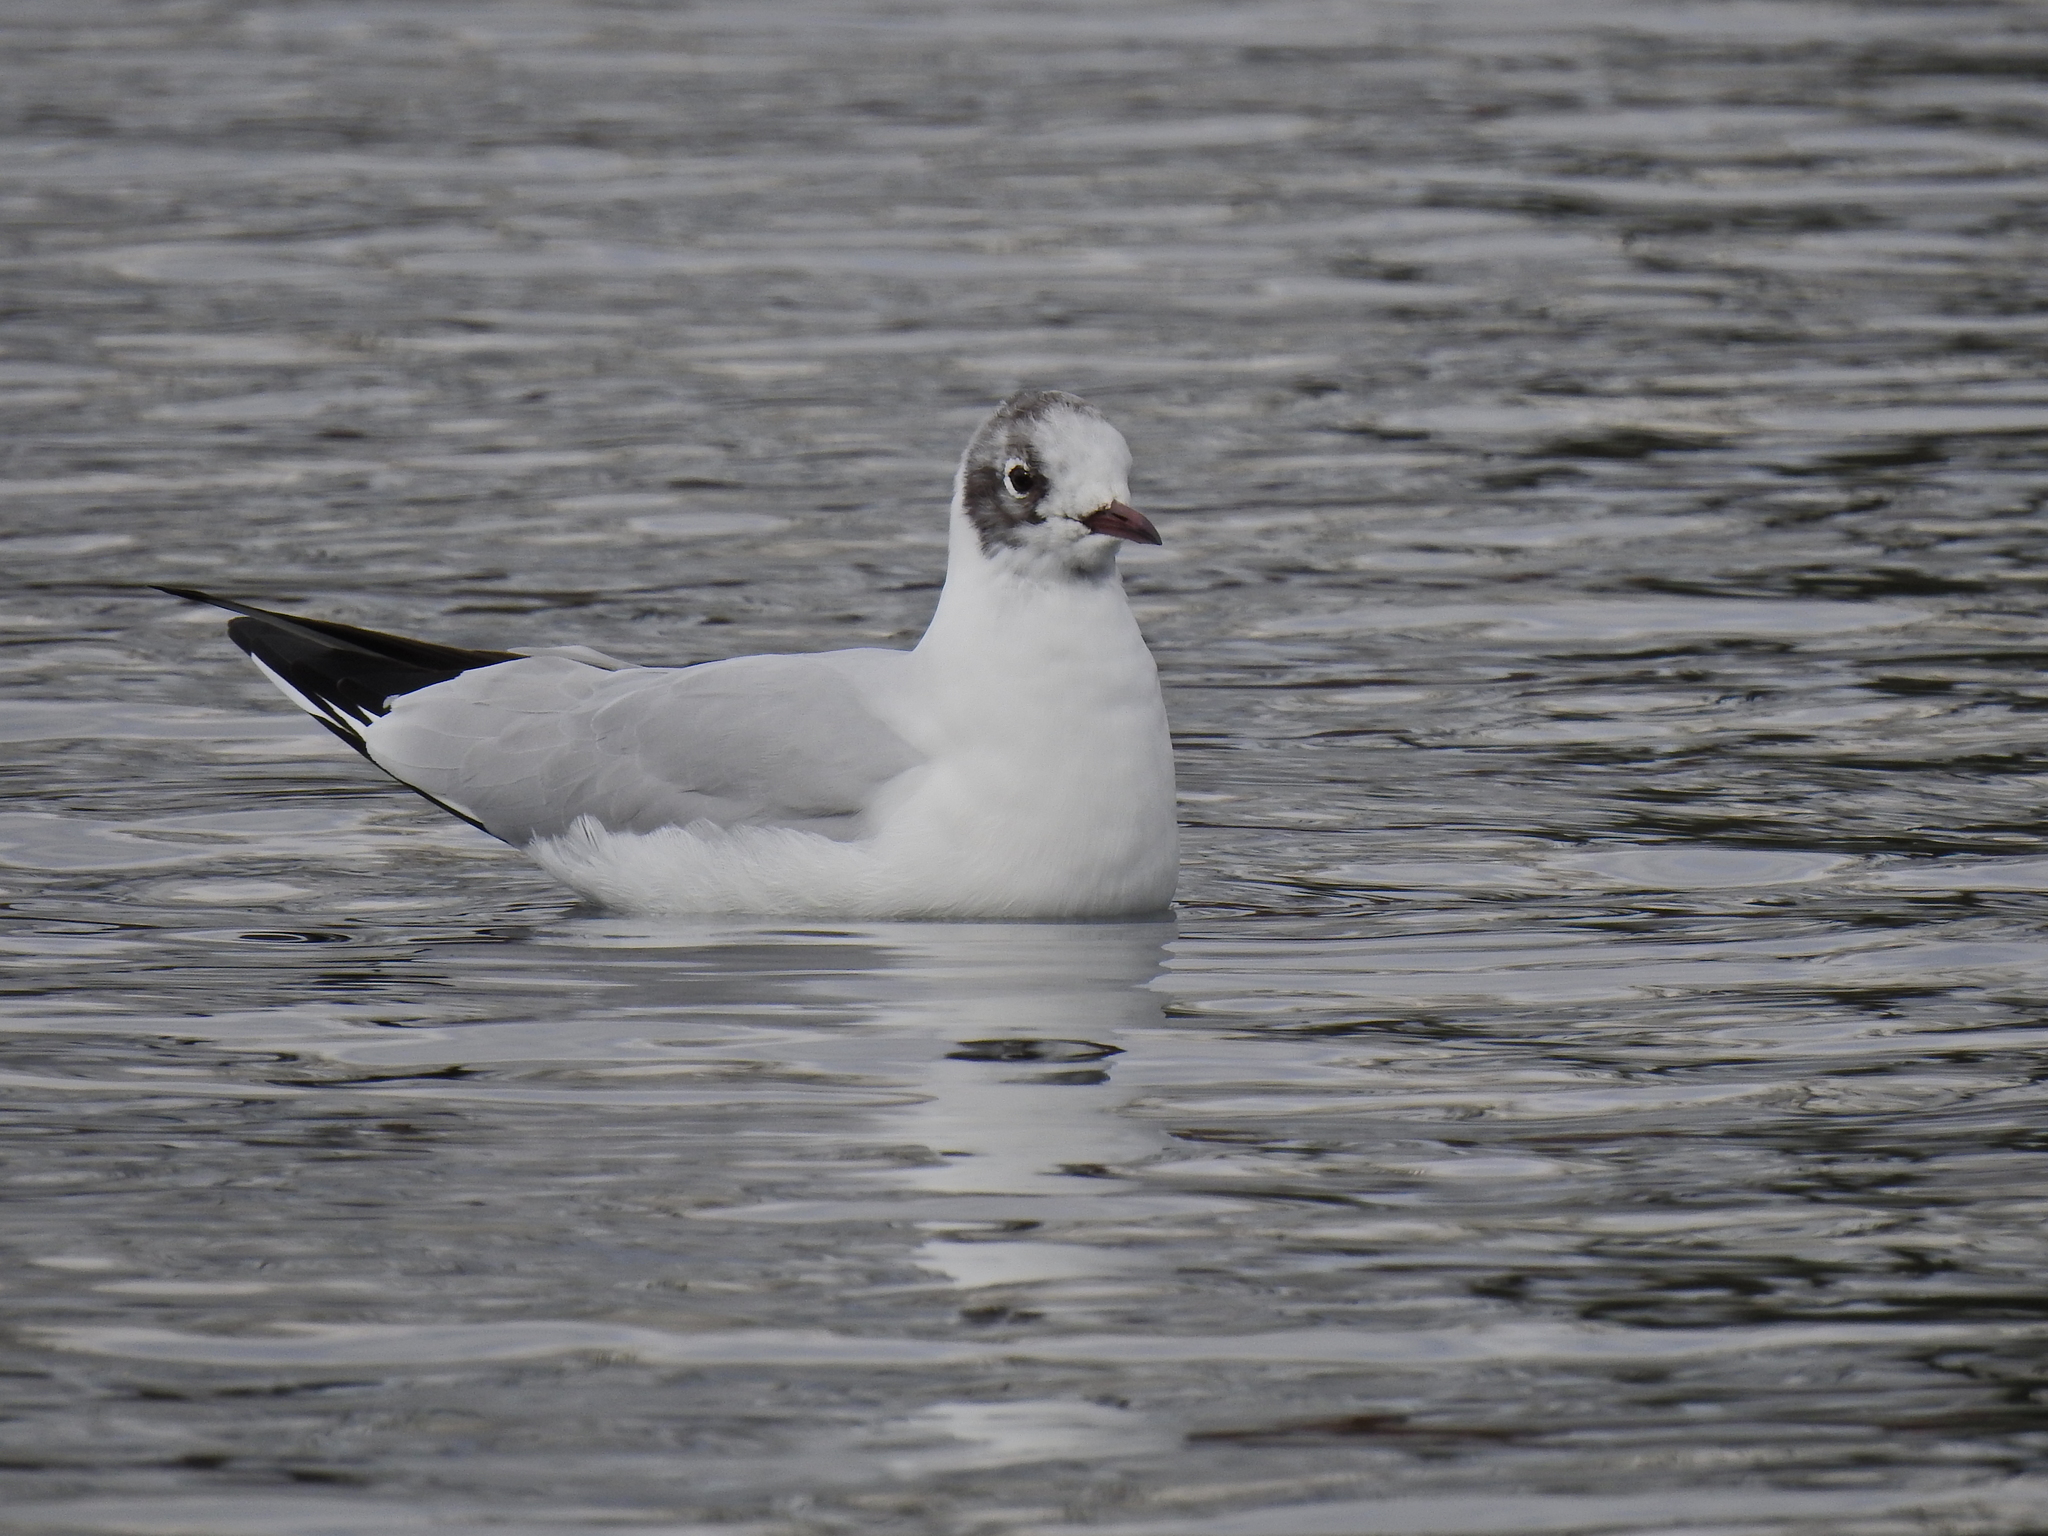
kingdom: Animalia
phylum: Chordata
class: Aves
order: Charadriiformes
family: Laridae
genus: Chroicocephalus
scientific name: Chroicocephalus ridibundus
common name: Black-headed gull
